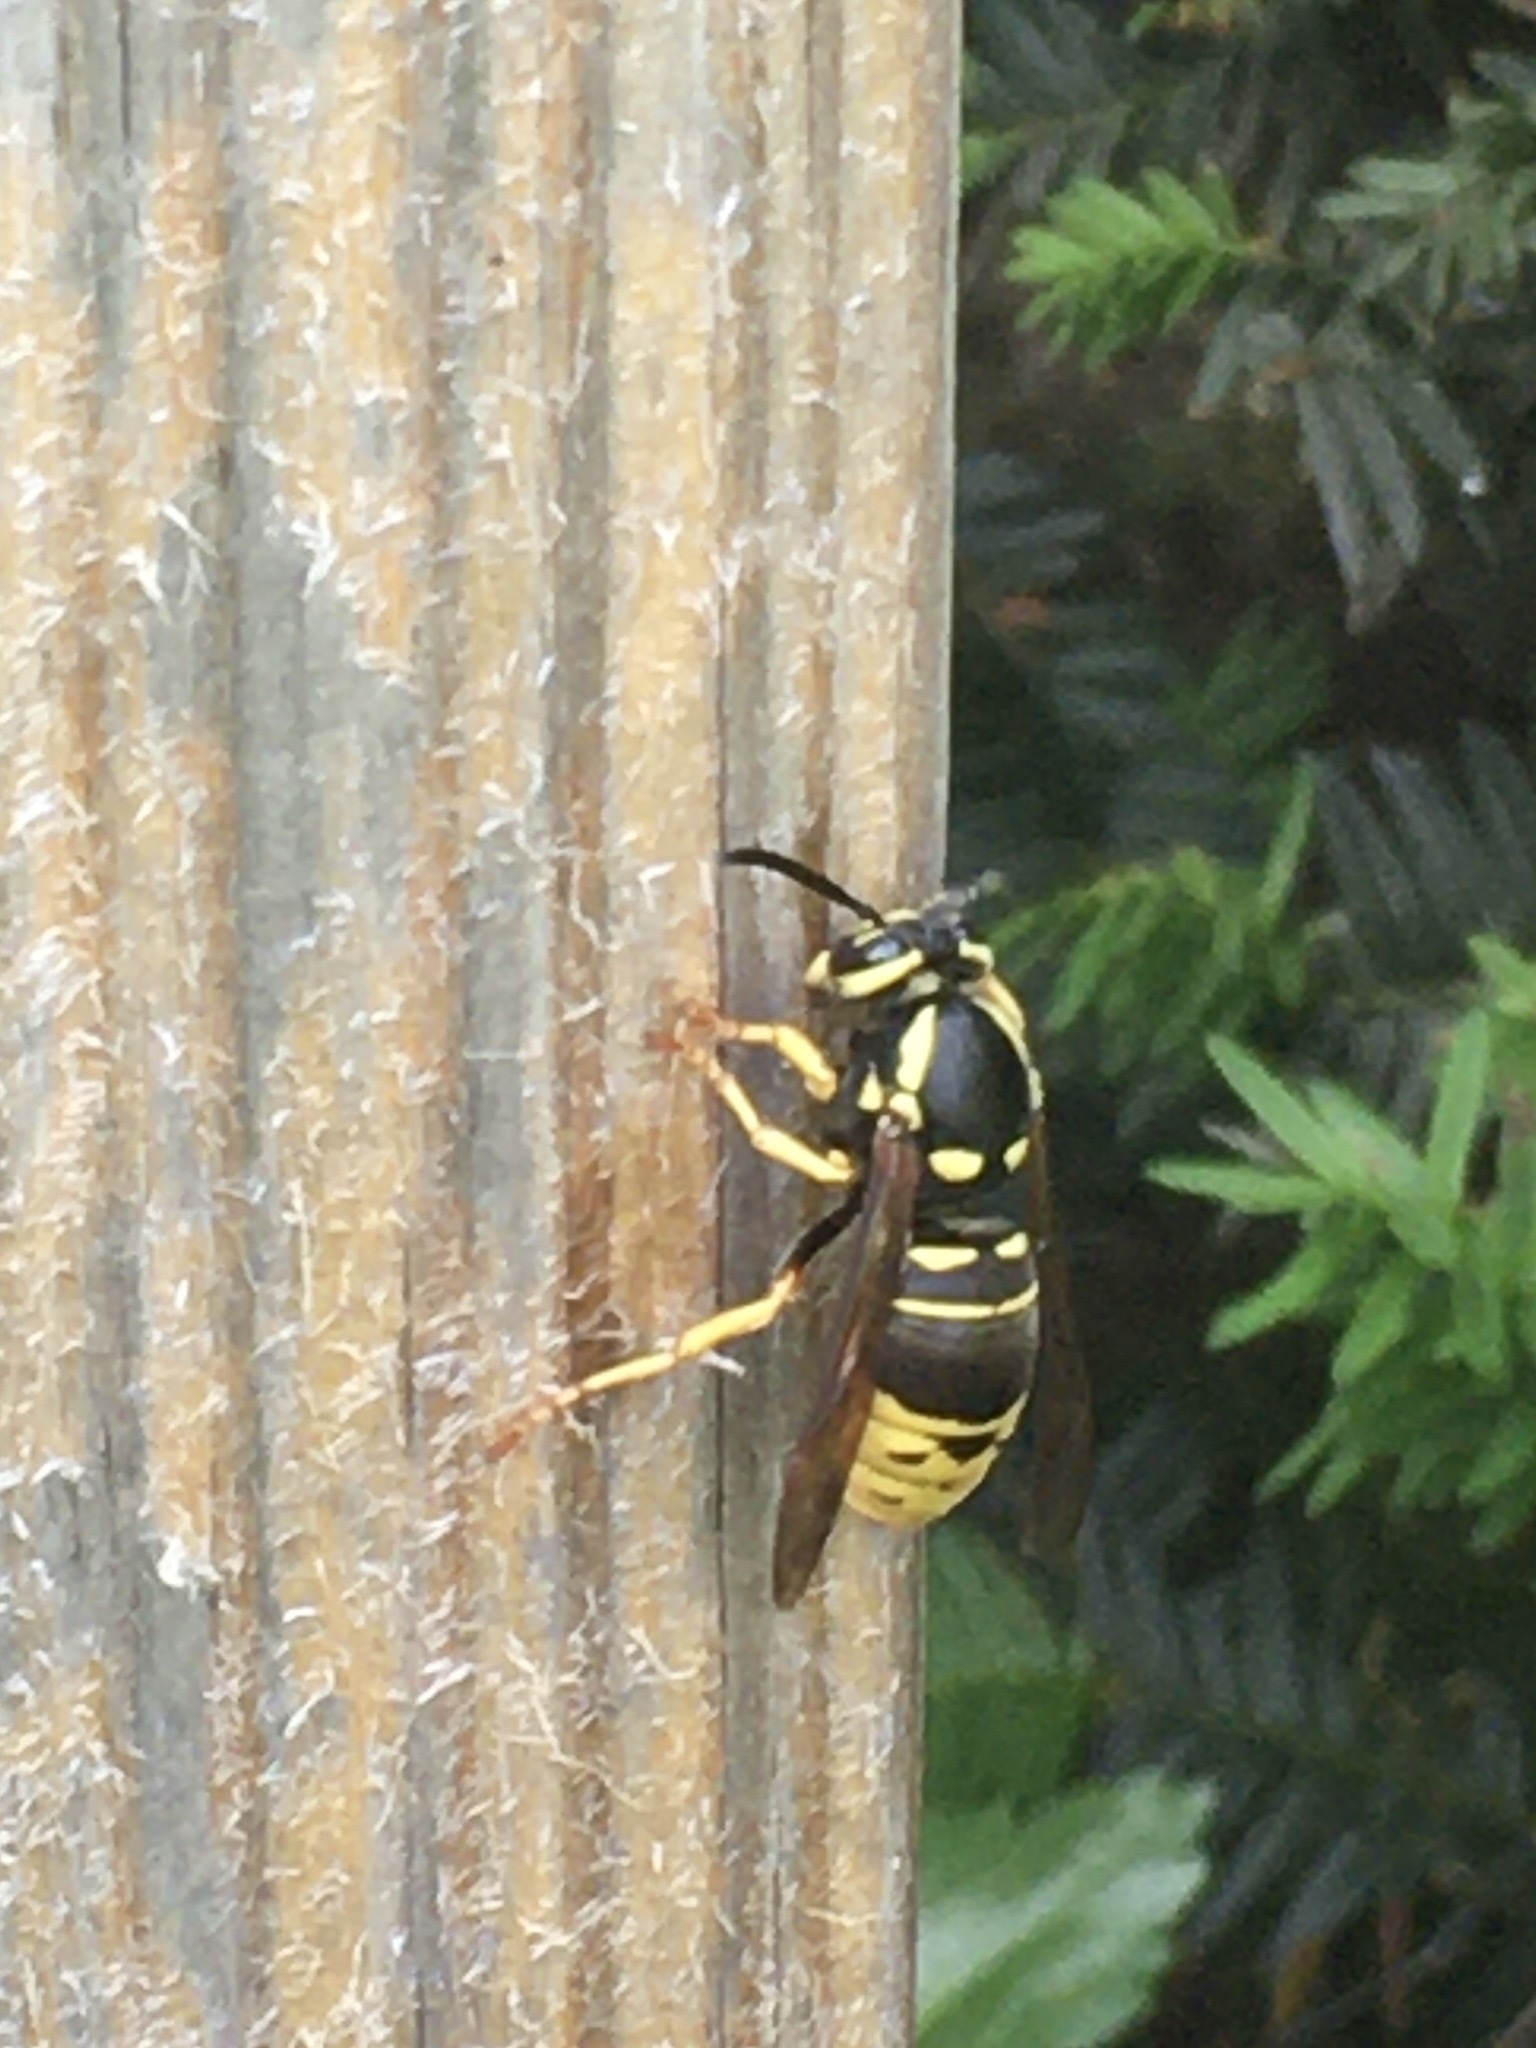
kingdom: Animalia
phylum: Arthropoda
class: Insecta
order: Hymenoptera
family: Vespidae
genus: Vespula
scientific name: Vespula vidua
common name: Widow yellowjacket
